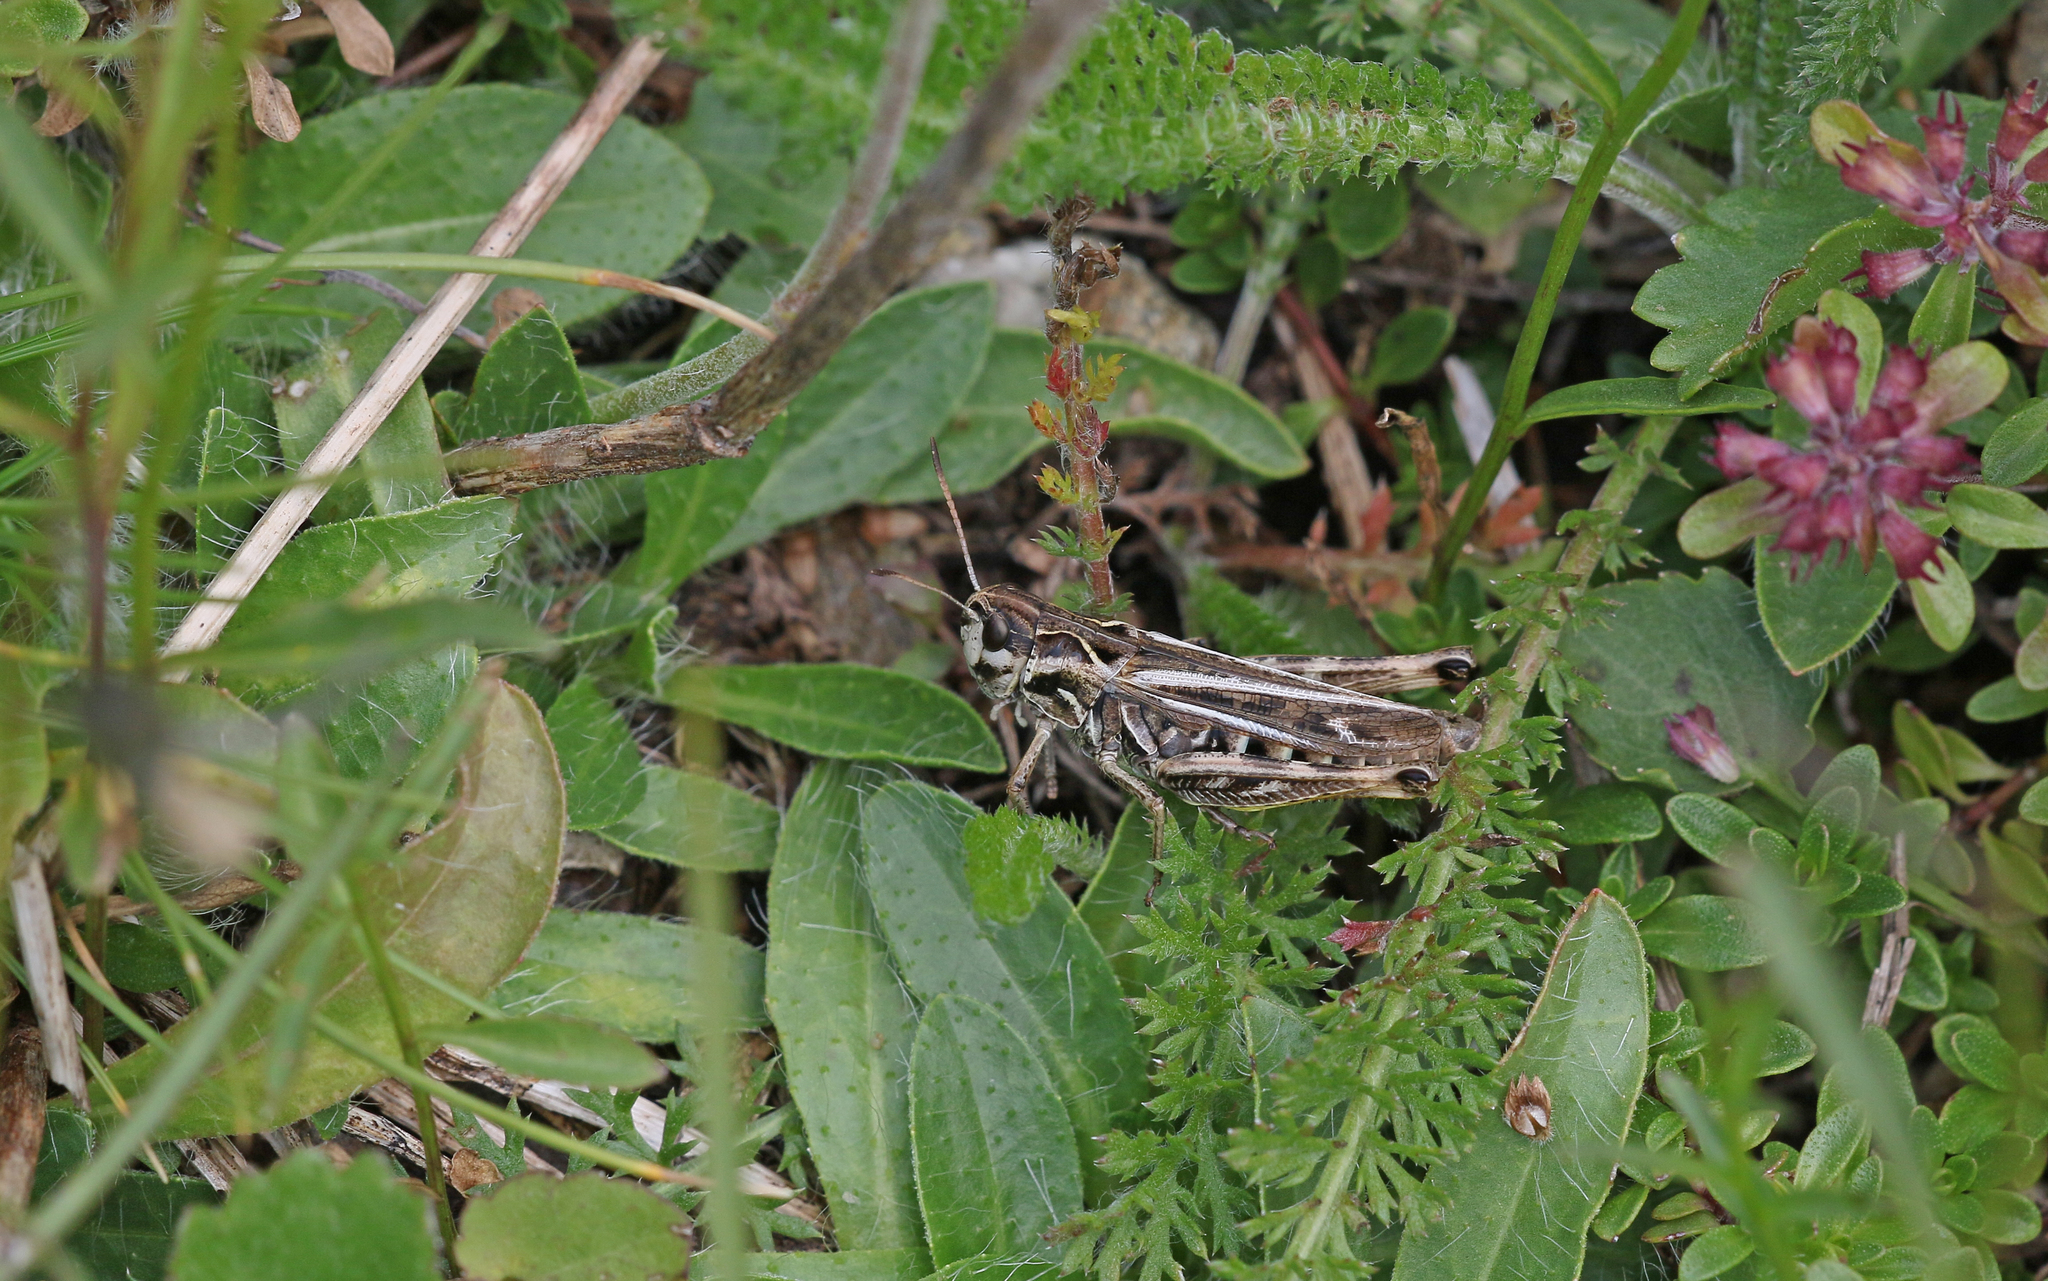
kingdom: Animalia
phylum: Arthropoda
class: Insecta
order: Orthoptera
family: Acrididae
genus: Gomphocerus
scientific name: Gomphocerus sibiricus
